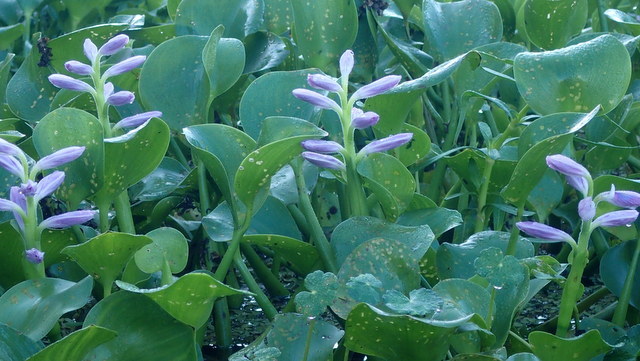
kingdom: Plantae
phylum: Tracheophyta
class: Liliopsida
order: Commelinales
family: Pontederiaceae
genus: Pontederia
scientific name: Pontederia crassipes
